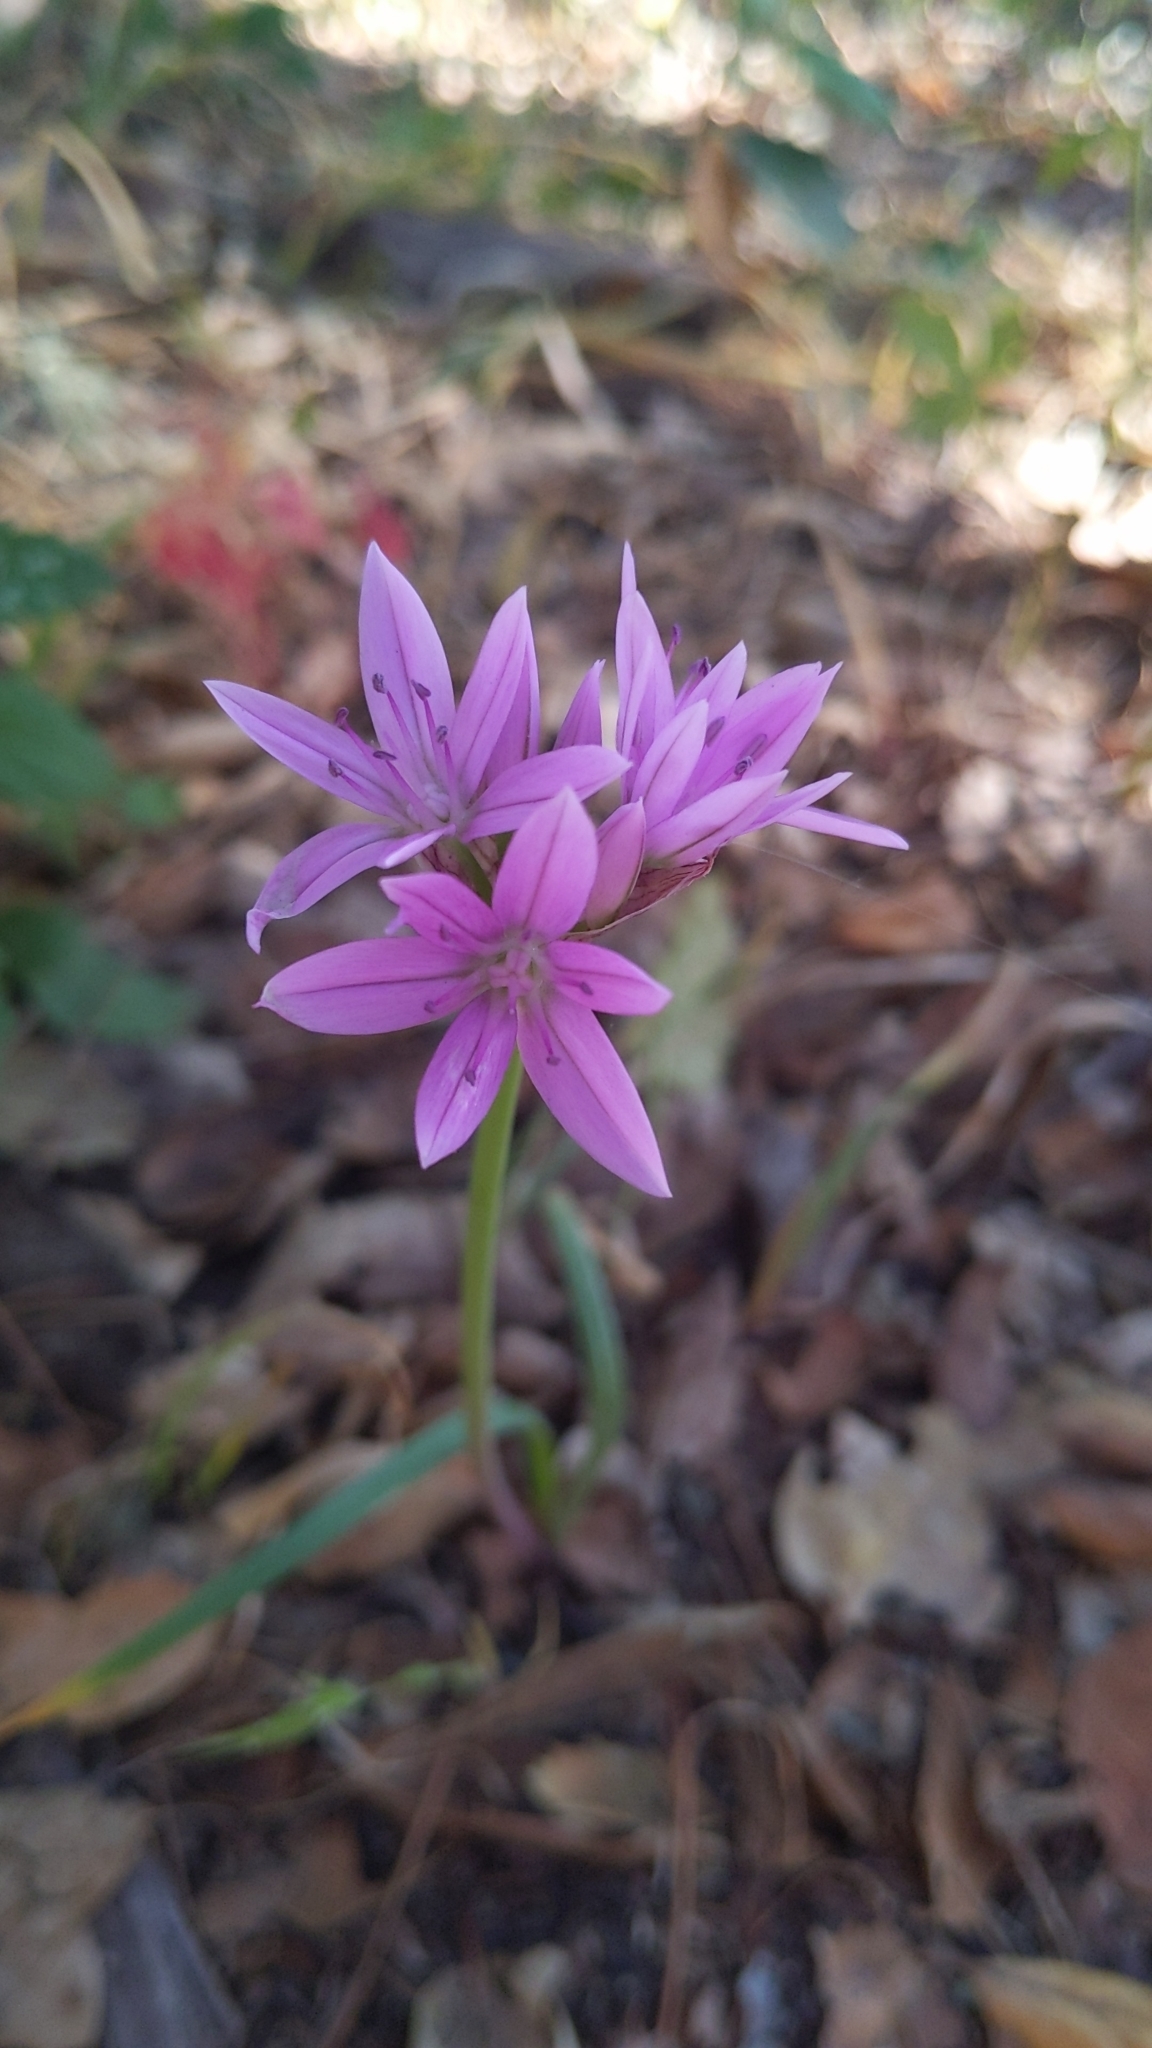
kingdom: Plantae
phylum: Tracheophyta
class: Liliopsida
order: Asparagales
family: Amaryllidaceae
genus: Allium
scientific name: Allium unifolium
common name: American garlic
